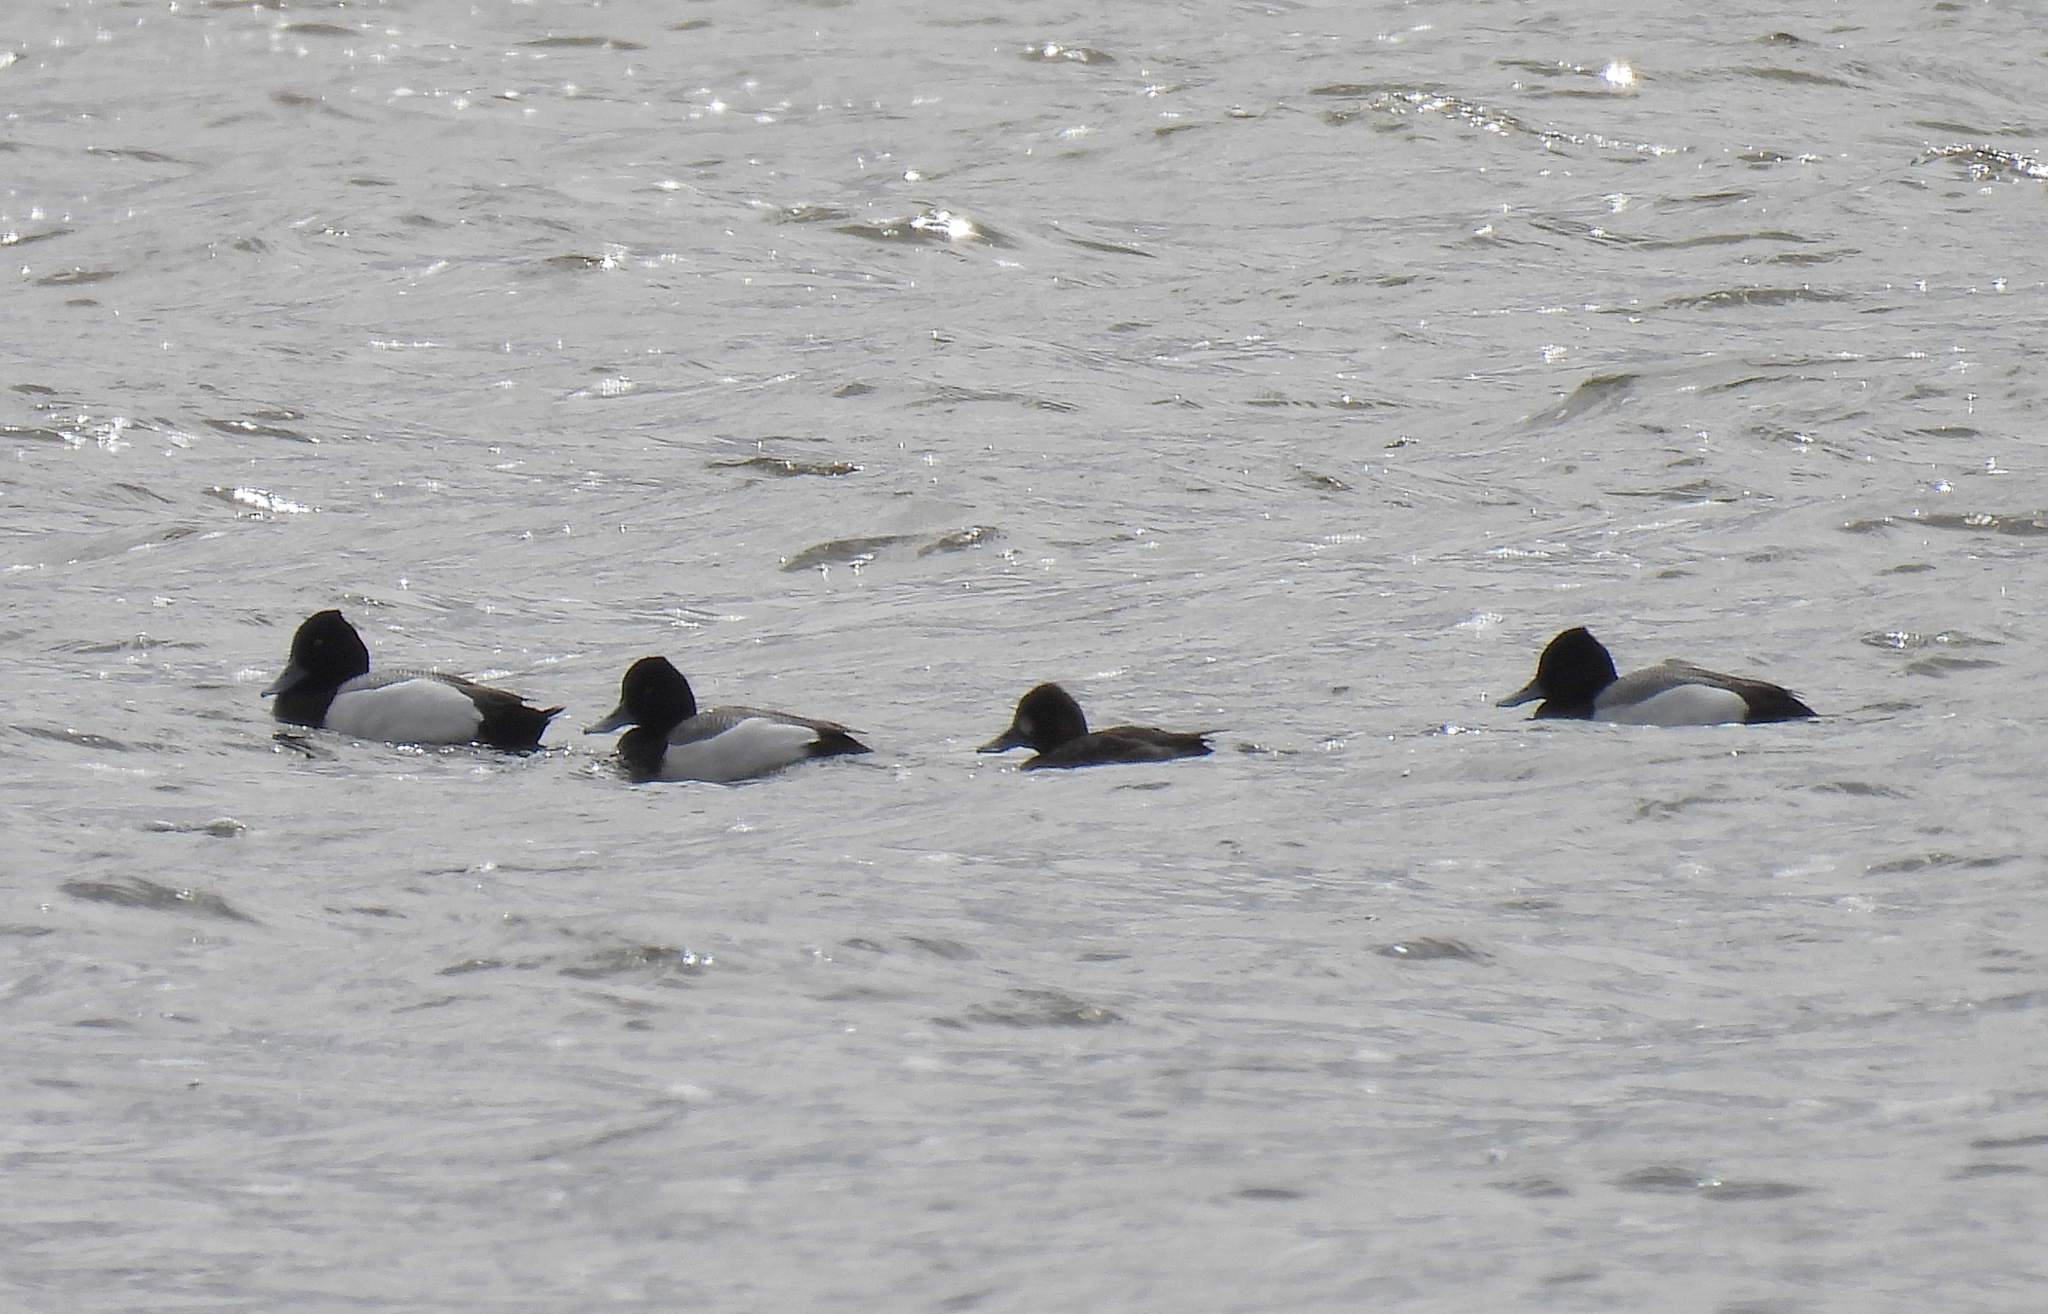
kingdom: Animalia
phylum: Chordata
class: Aves
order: Anseriformes
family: Anatidae
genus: Aythya
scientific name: Aythya affinis
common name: Lesser scaup
